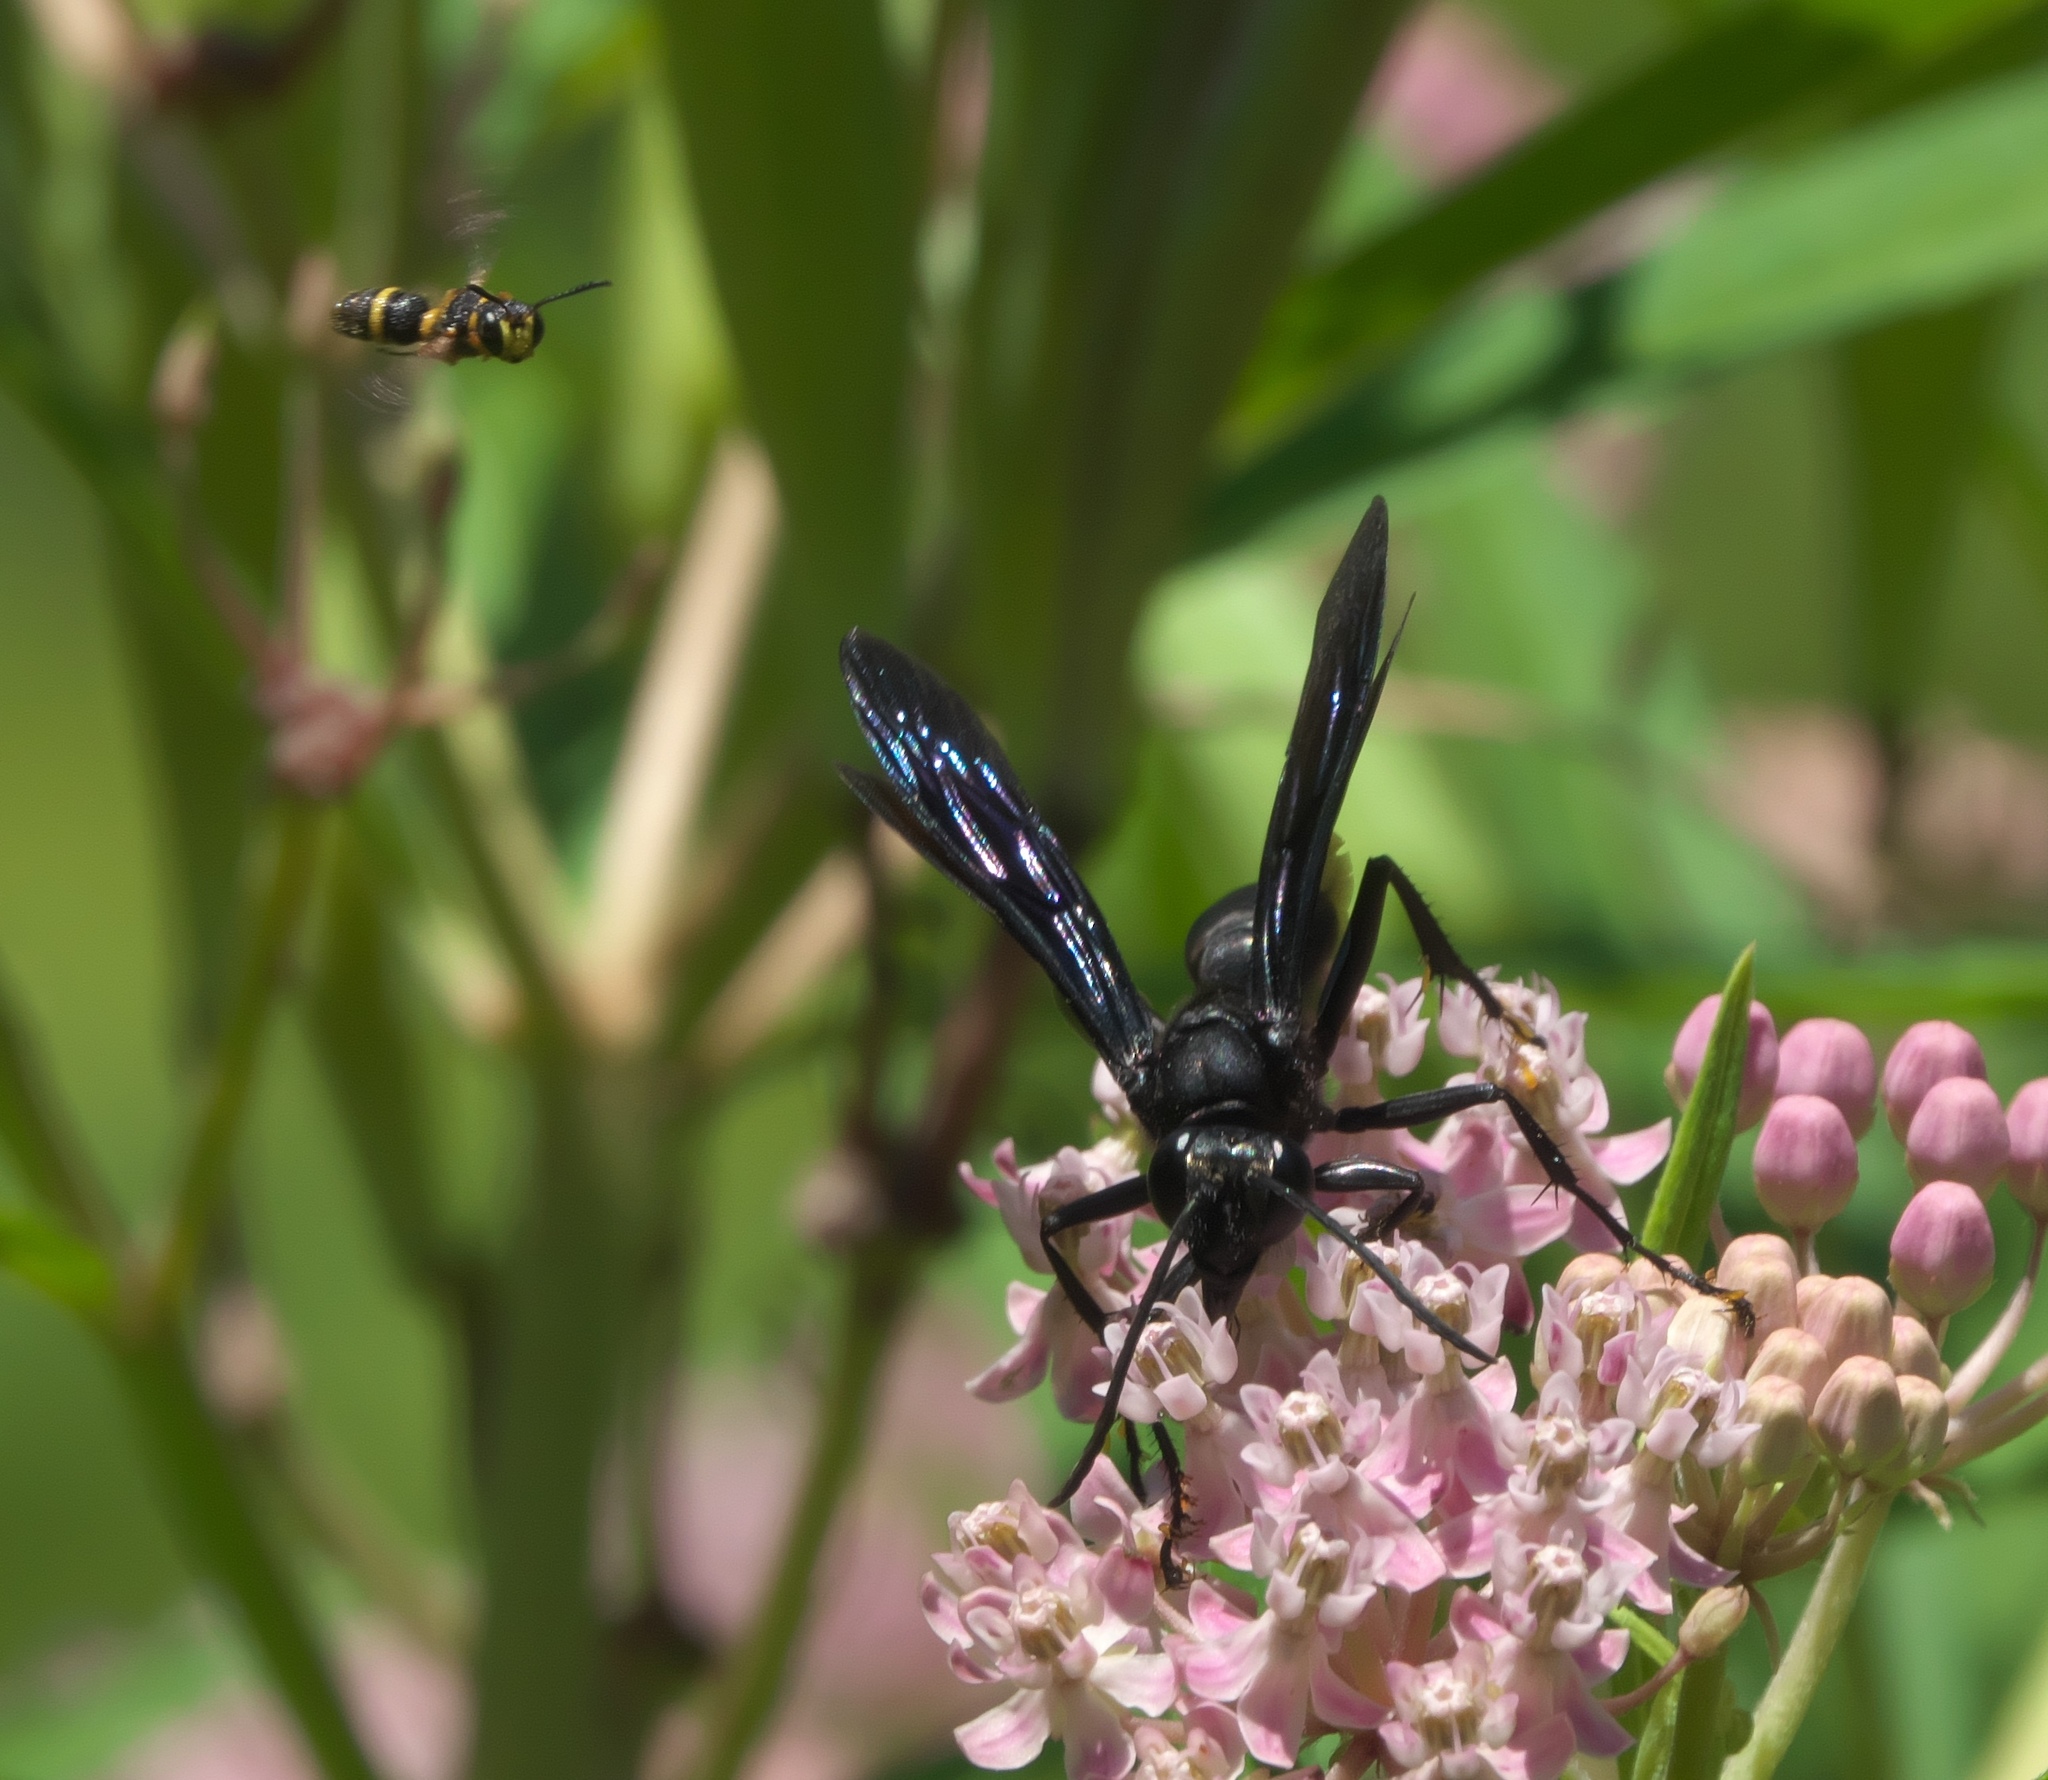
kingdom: Animalia
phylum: Arthropoda
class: Insecta
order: Hymenoptera
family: Crabronidae
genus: Cerceris
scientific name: Cerceris insolita
